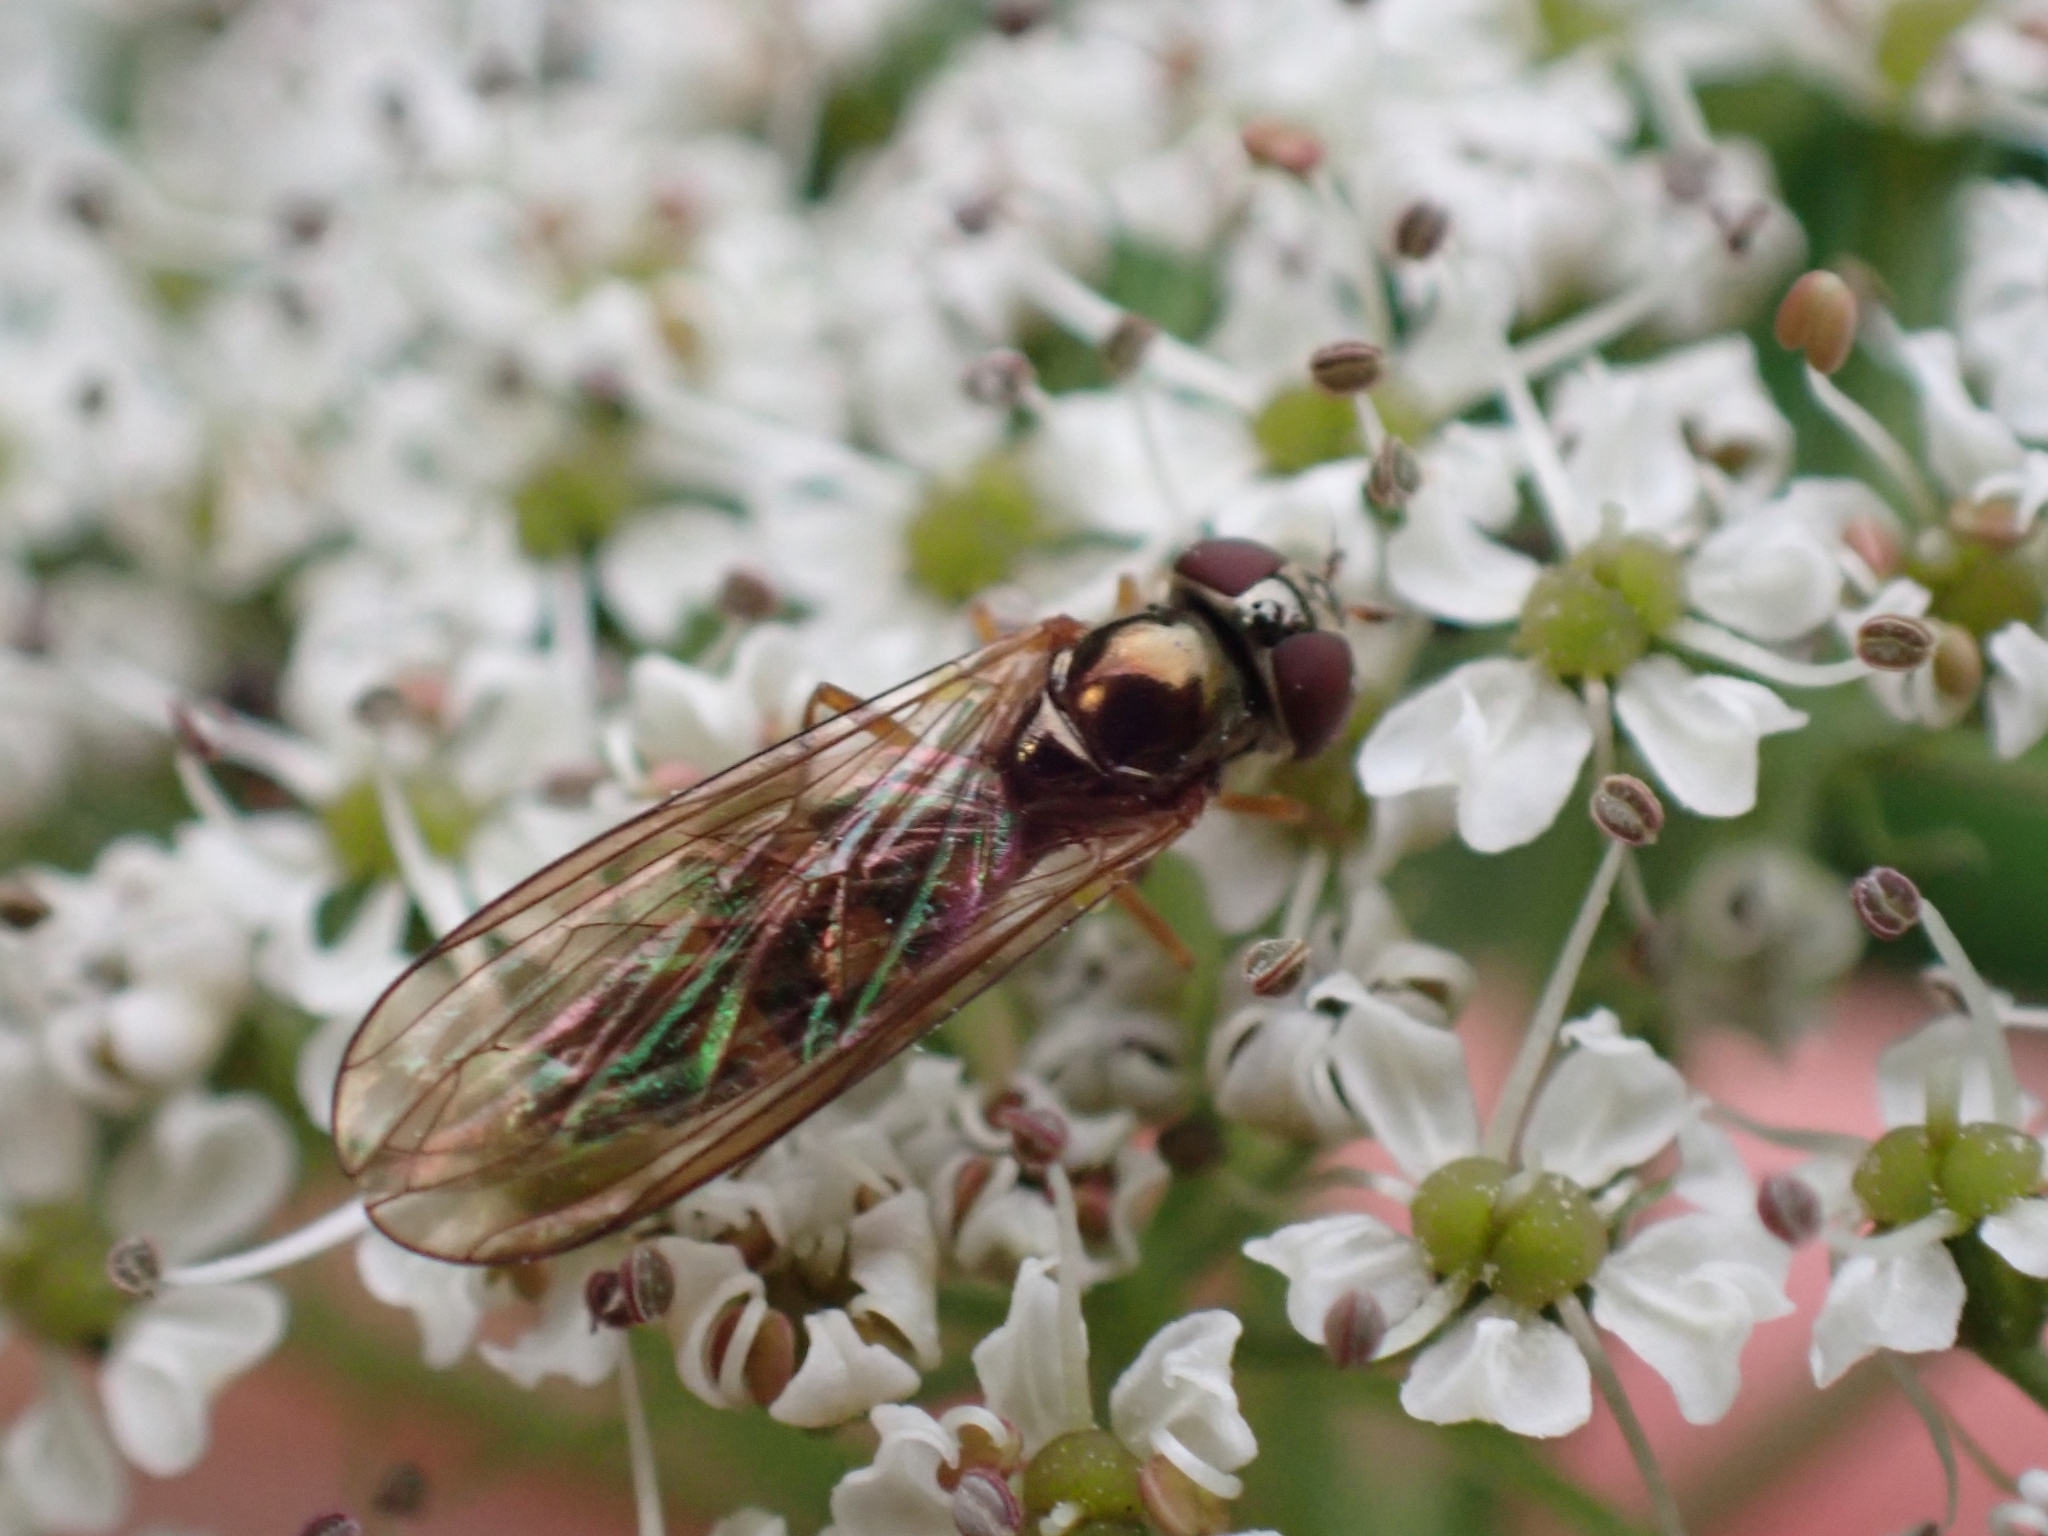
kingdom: Animalia
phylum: Arthropoda
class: Insecta
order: Diptera
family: Syrphidae
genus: Melanostoma
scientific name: Melanostoma mellina
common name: Hover fly
